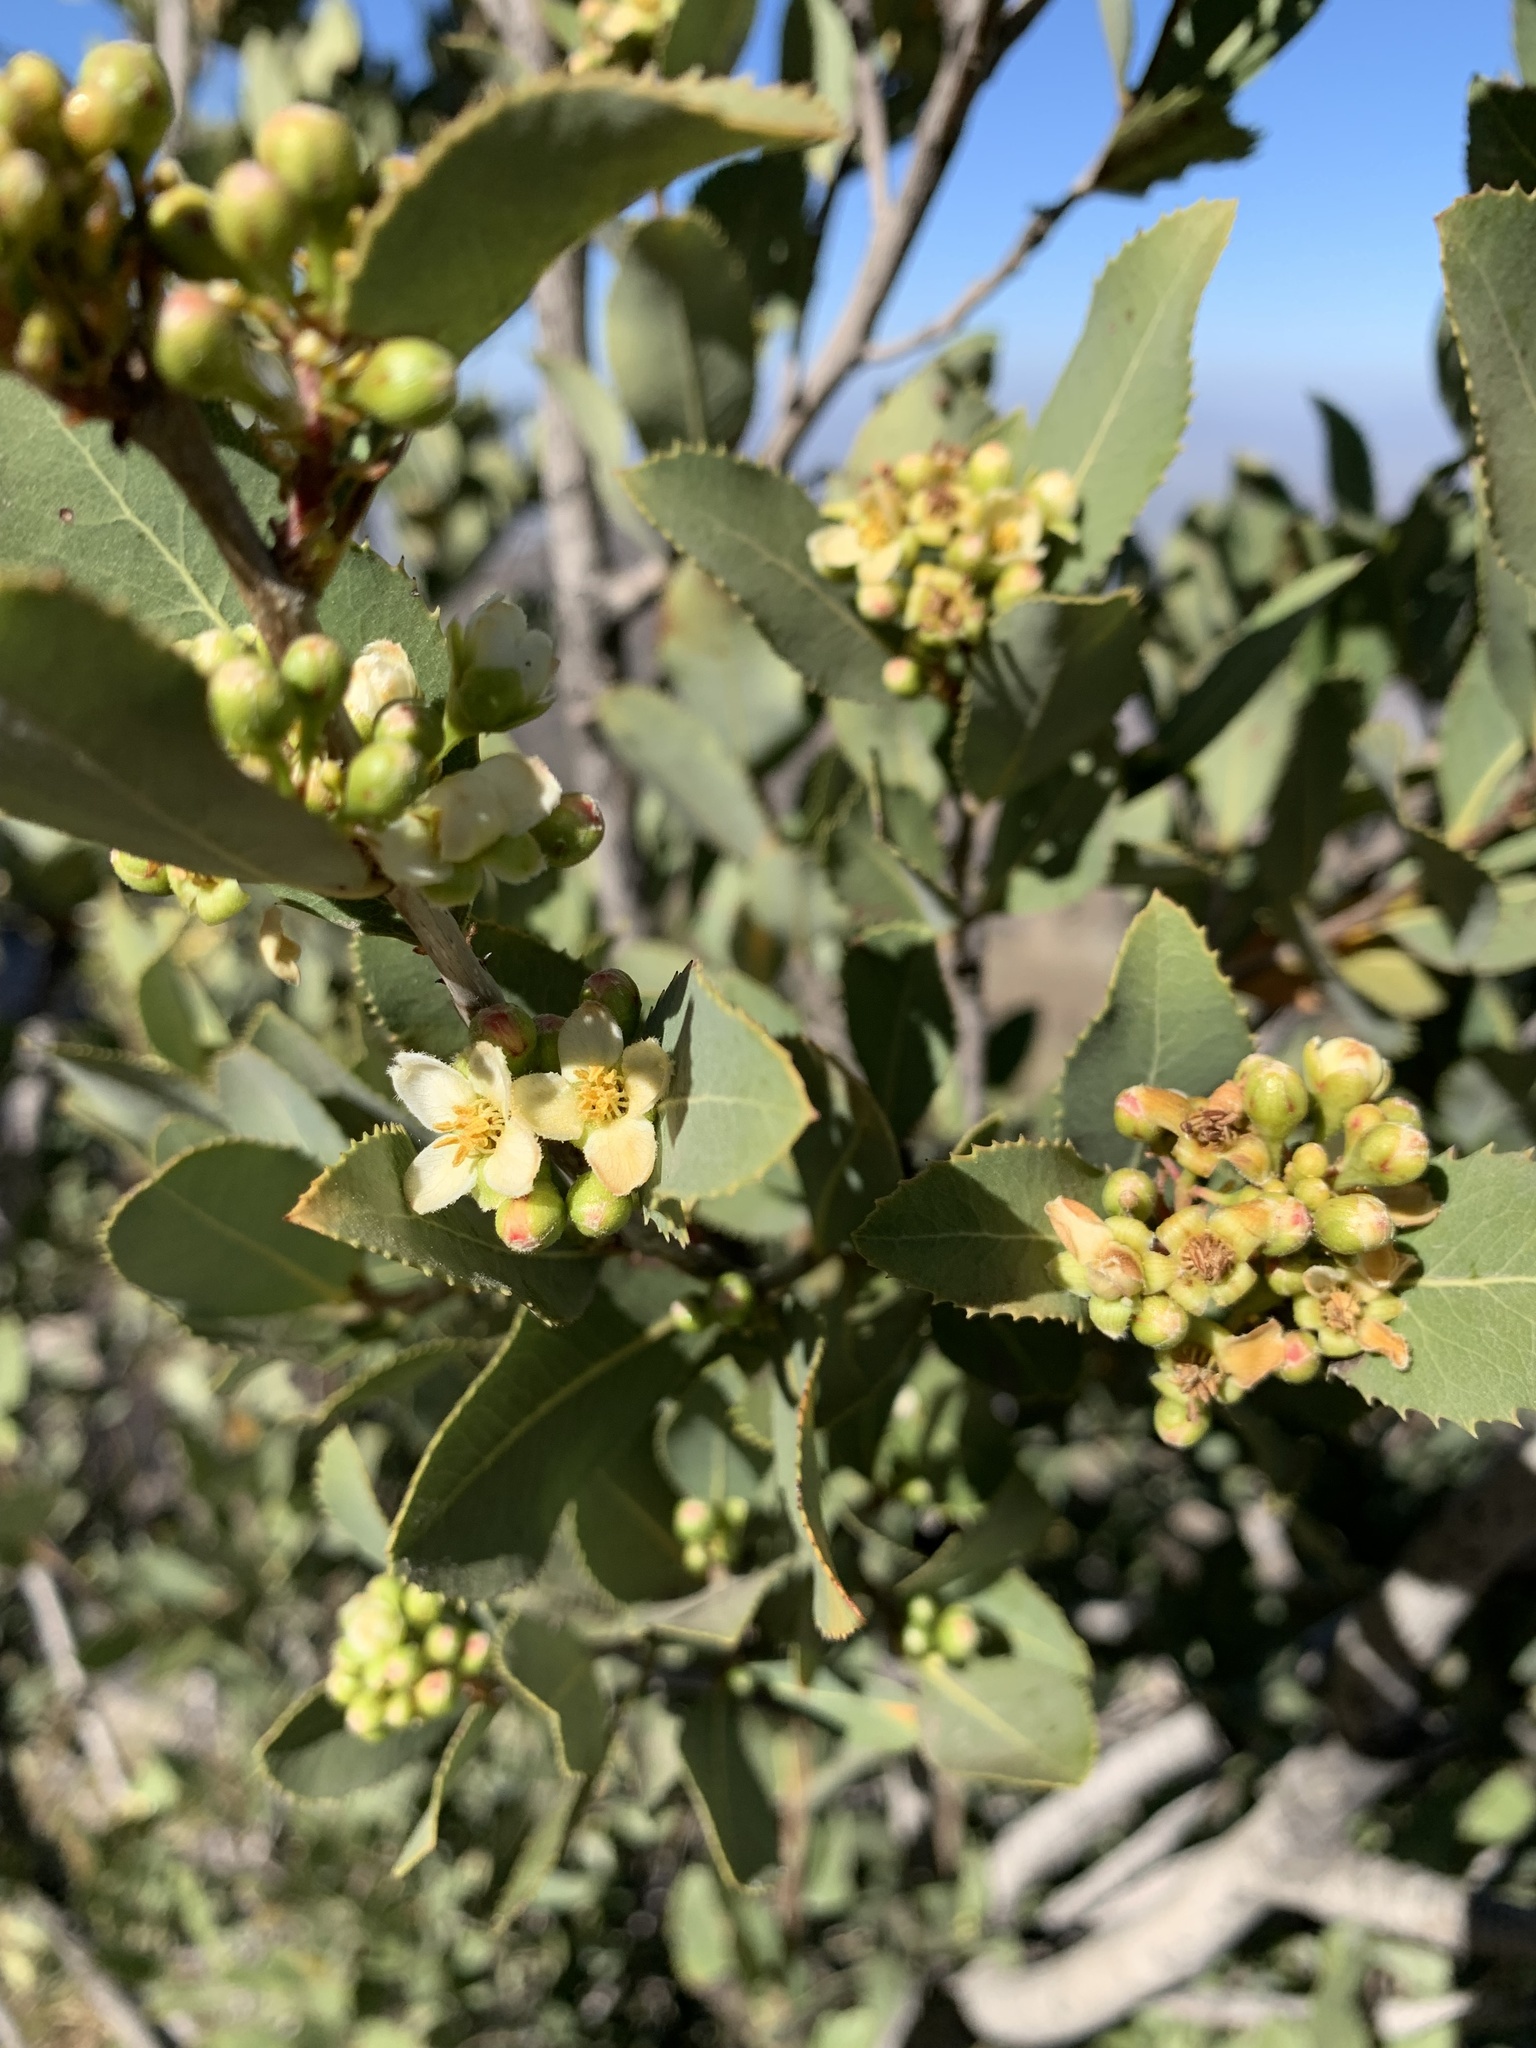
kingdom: Plantae
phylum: Tracheophyta
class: Magnoliopsida
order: Rosales
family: Rosaceae
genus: Kageneckia
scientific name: Kageneckia oblonga
